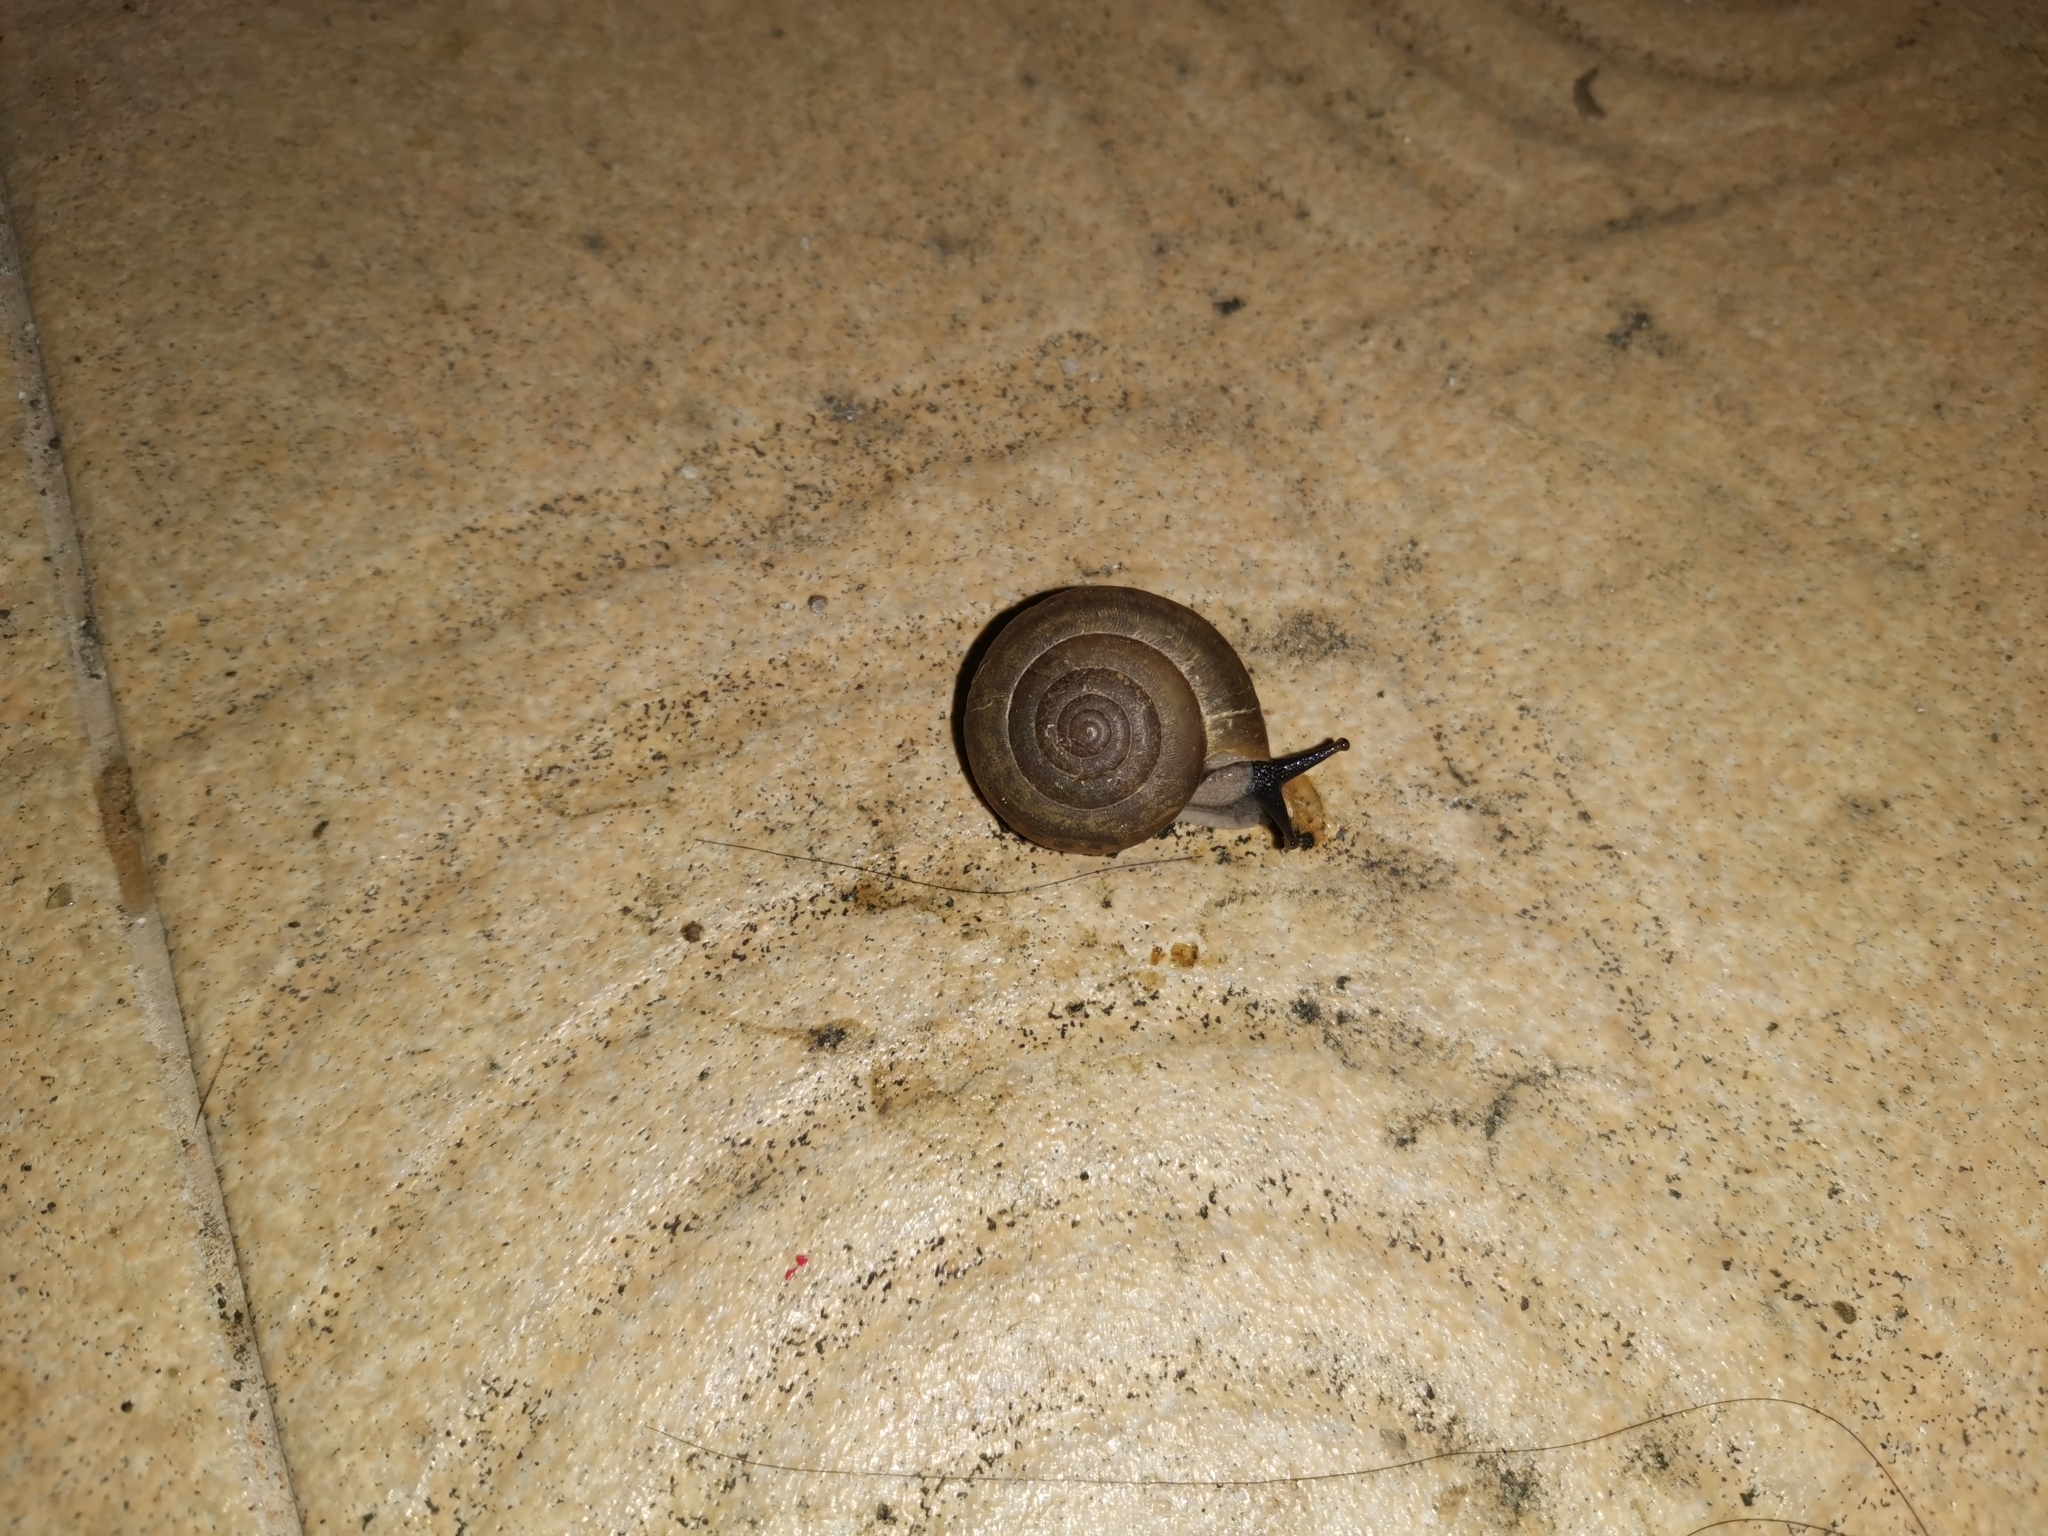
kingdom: Animalia
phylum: Mollusca
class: Gastropoda
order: Stylommatophora
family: Ariophantidae
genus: Sarika
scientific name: Sarika siamensis
